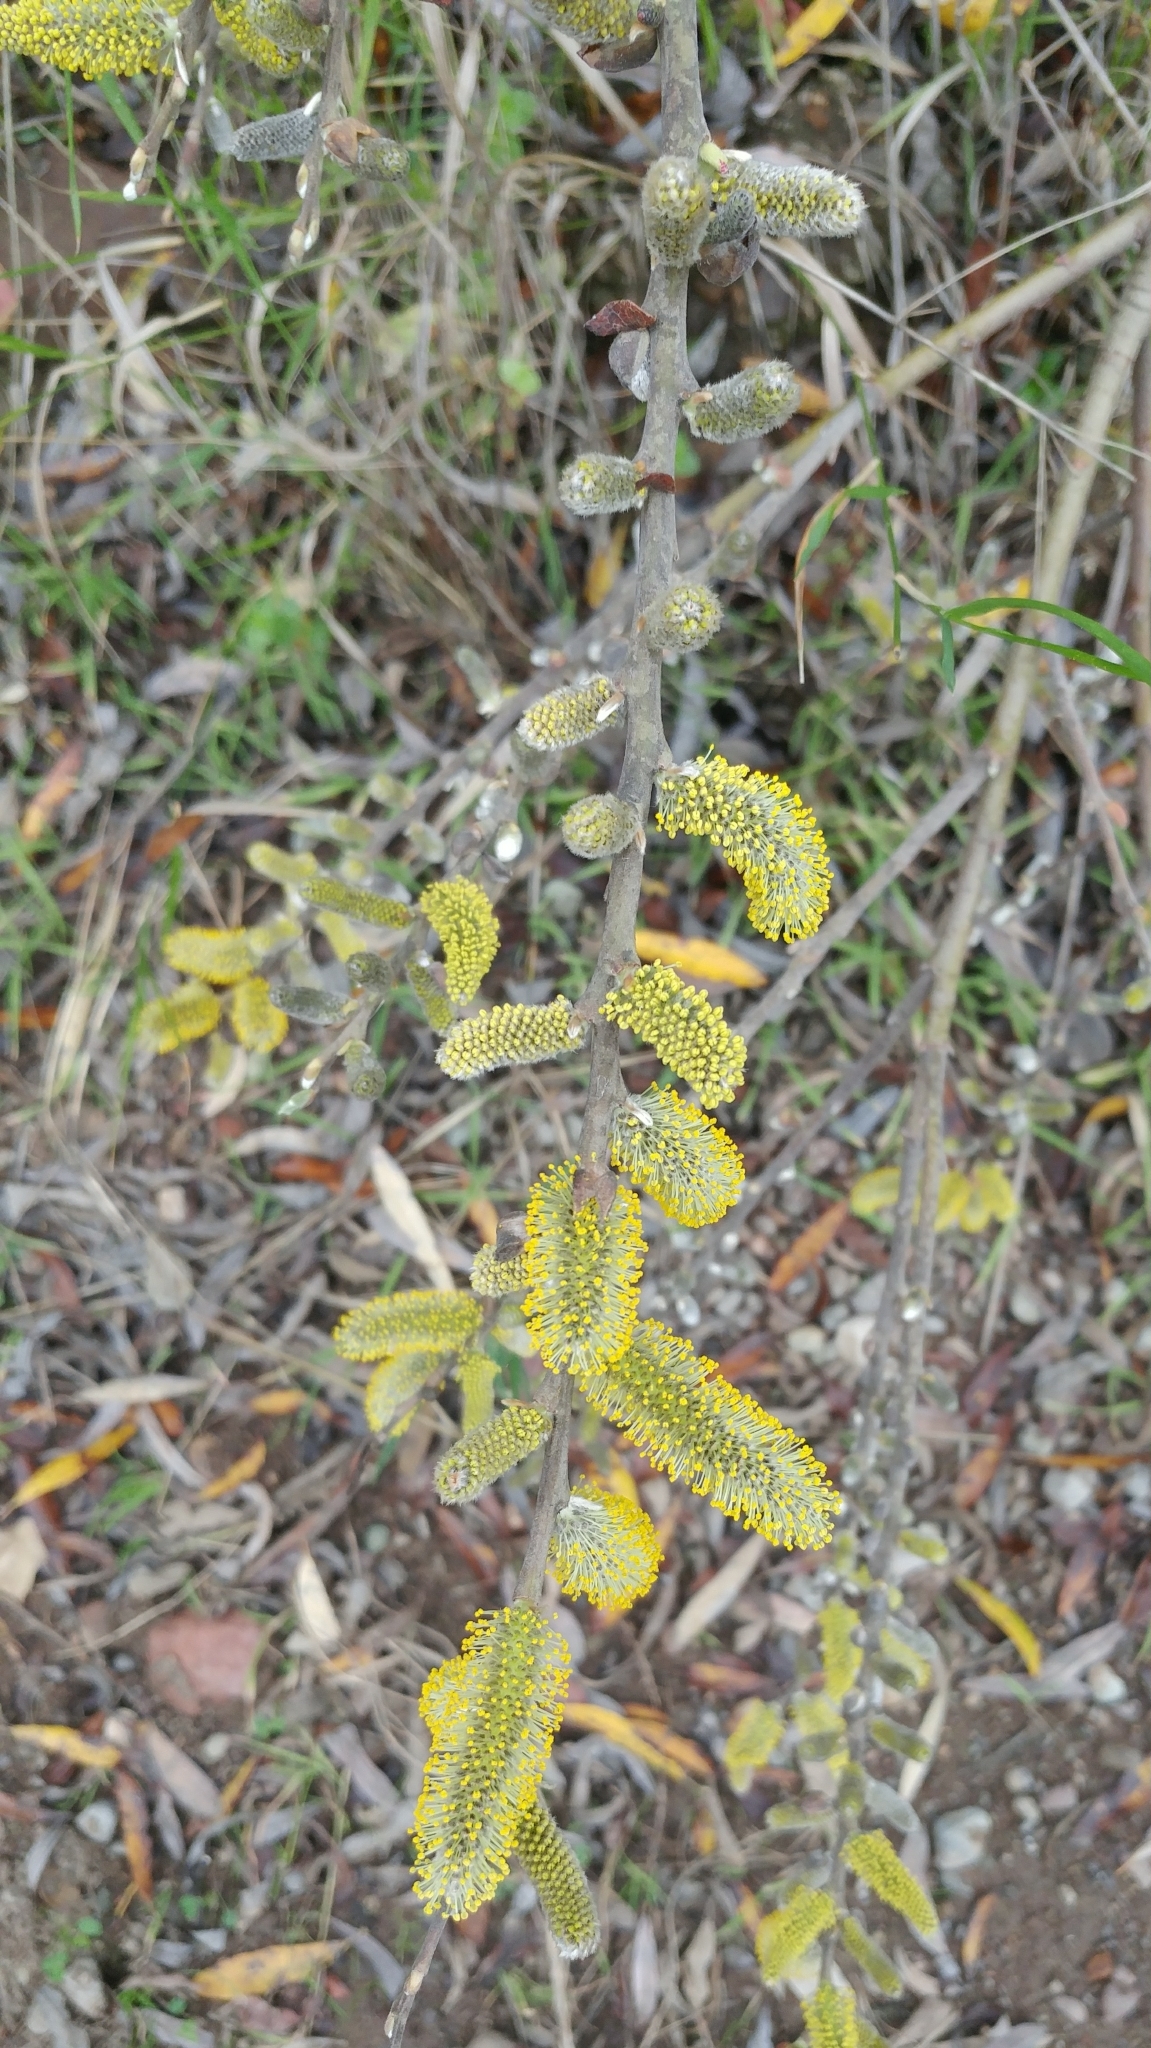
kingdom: Plantae
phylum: Tracheophyta
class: Magnoliopsida
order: Malpighiales
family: Salicaceae
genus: Salix
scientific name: Salix lasiolepis
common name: Arroyo willow
